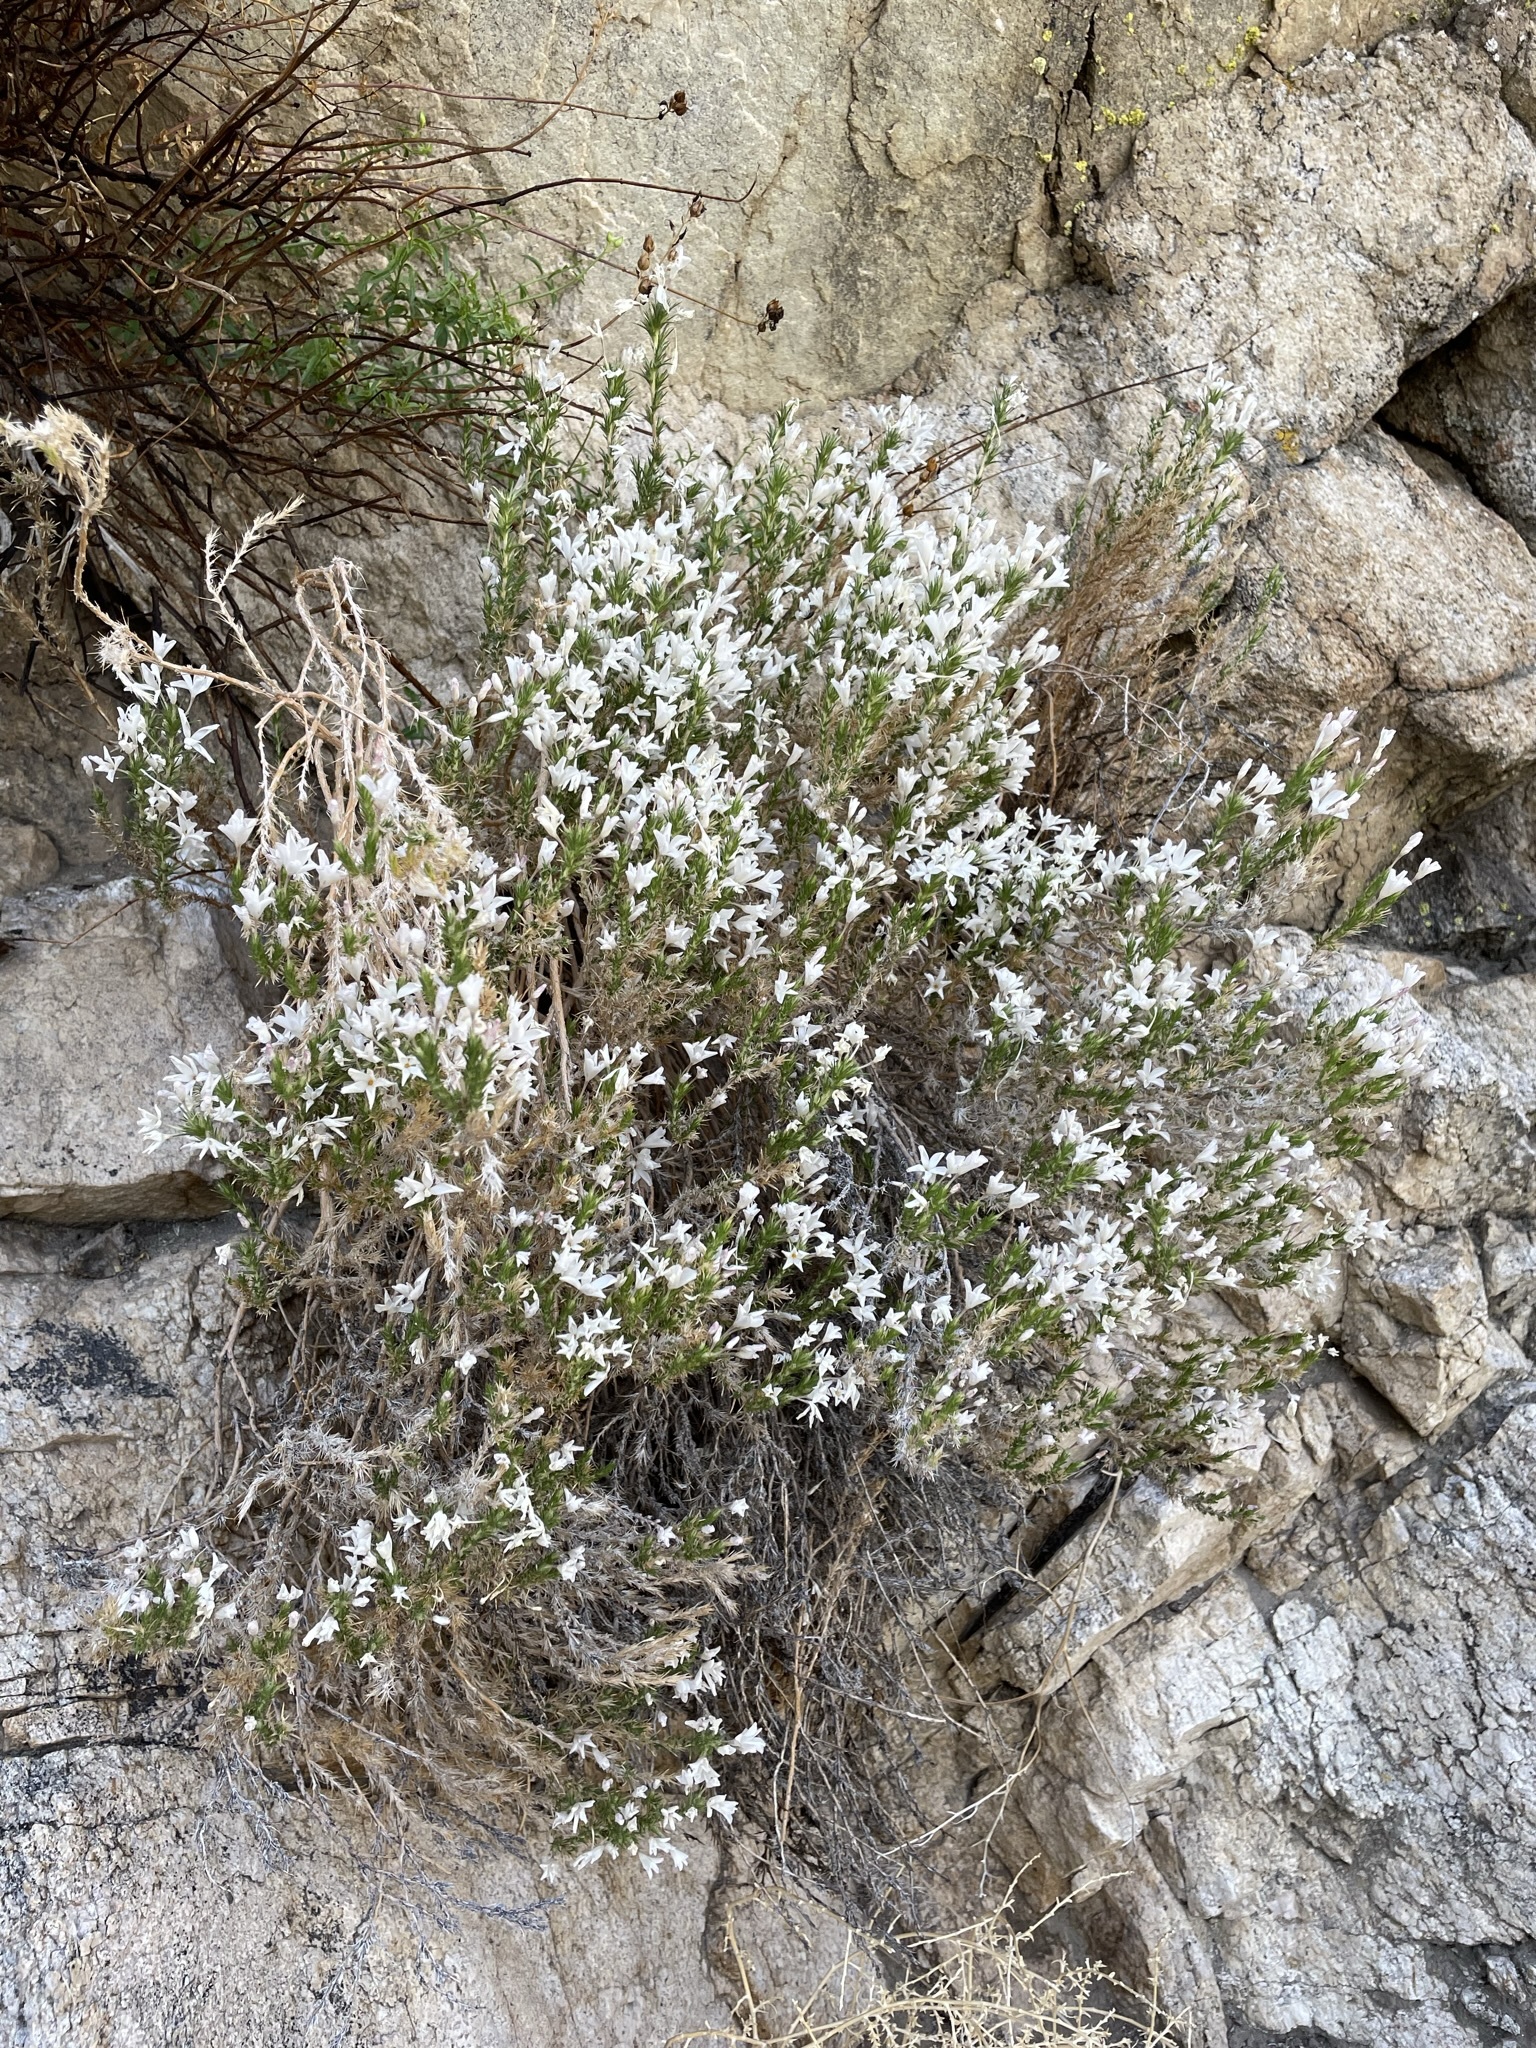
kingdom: Plantae
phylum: Tracheophyta
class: Magnoliopsida
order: Ericales
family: Polemoniaceae
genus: Linanthus
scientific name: Linanthus pungens
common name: Granite prickly phlox
